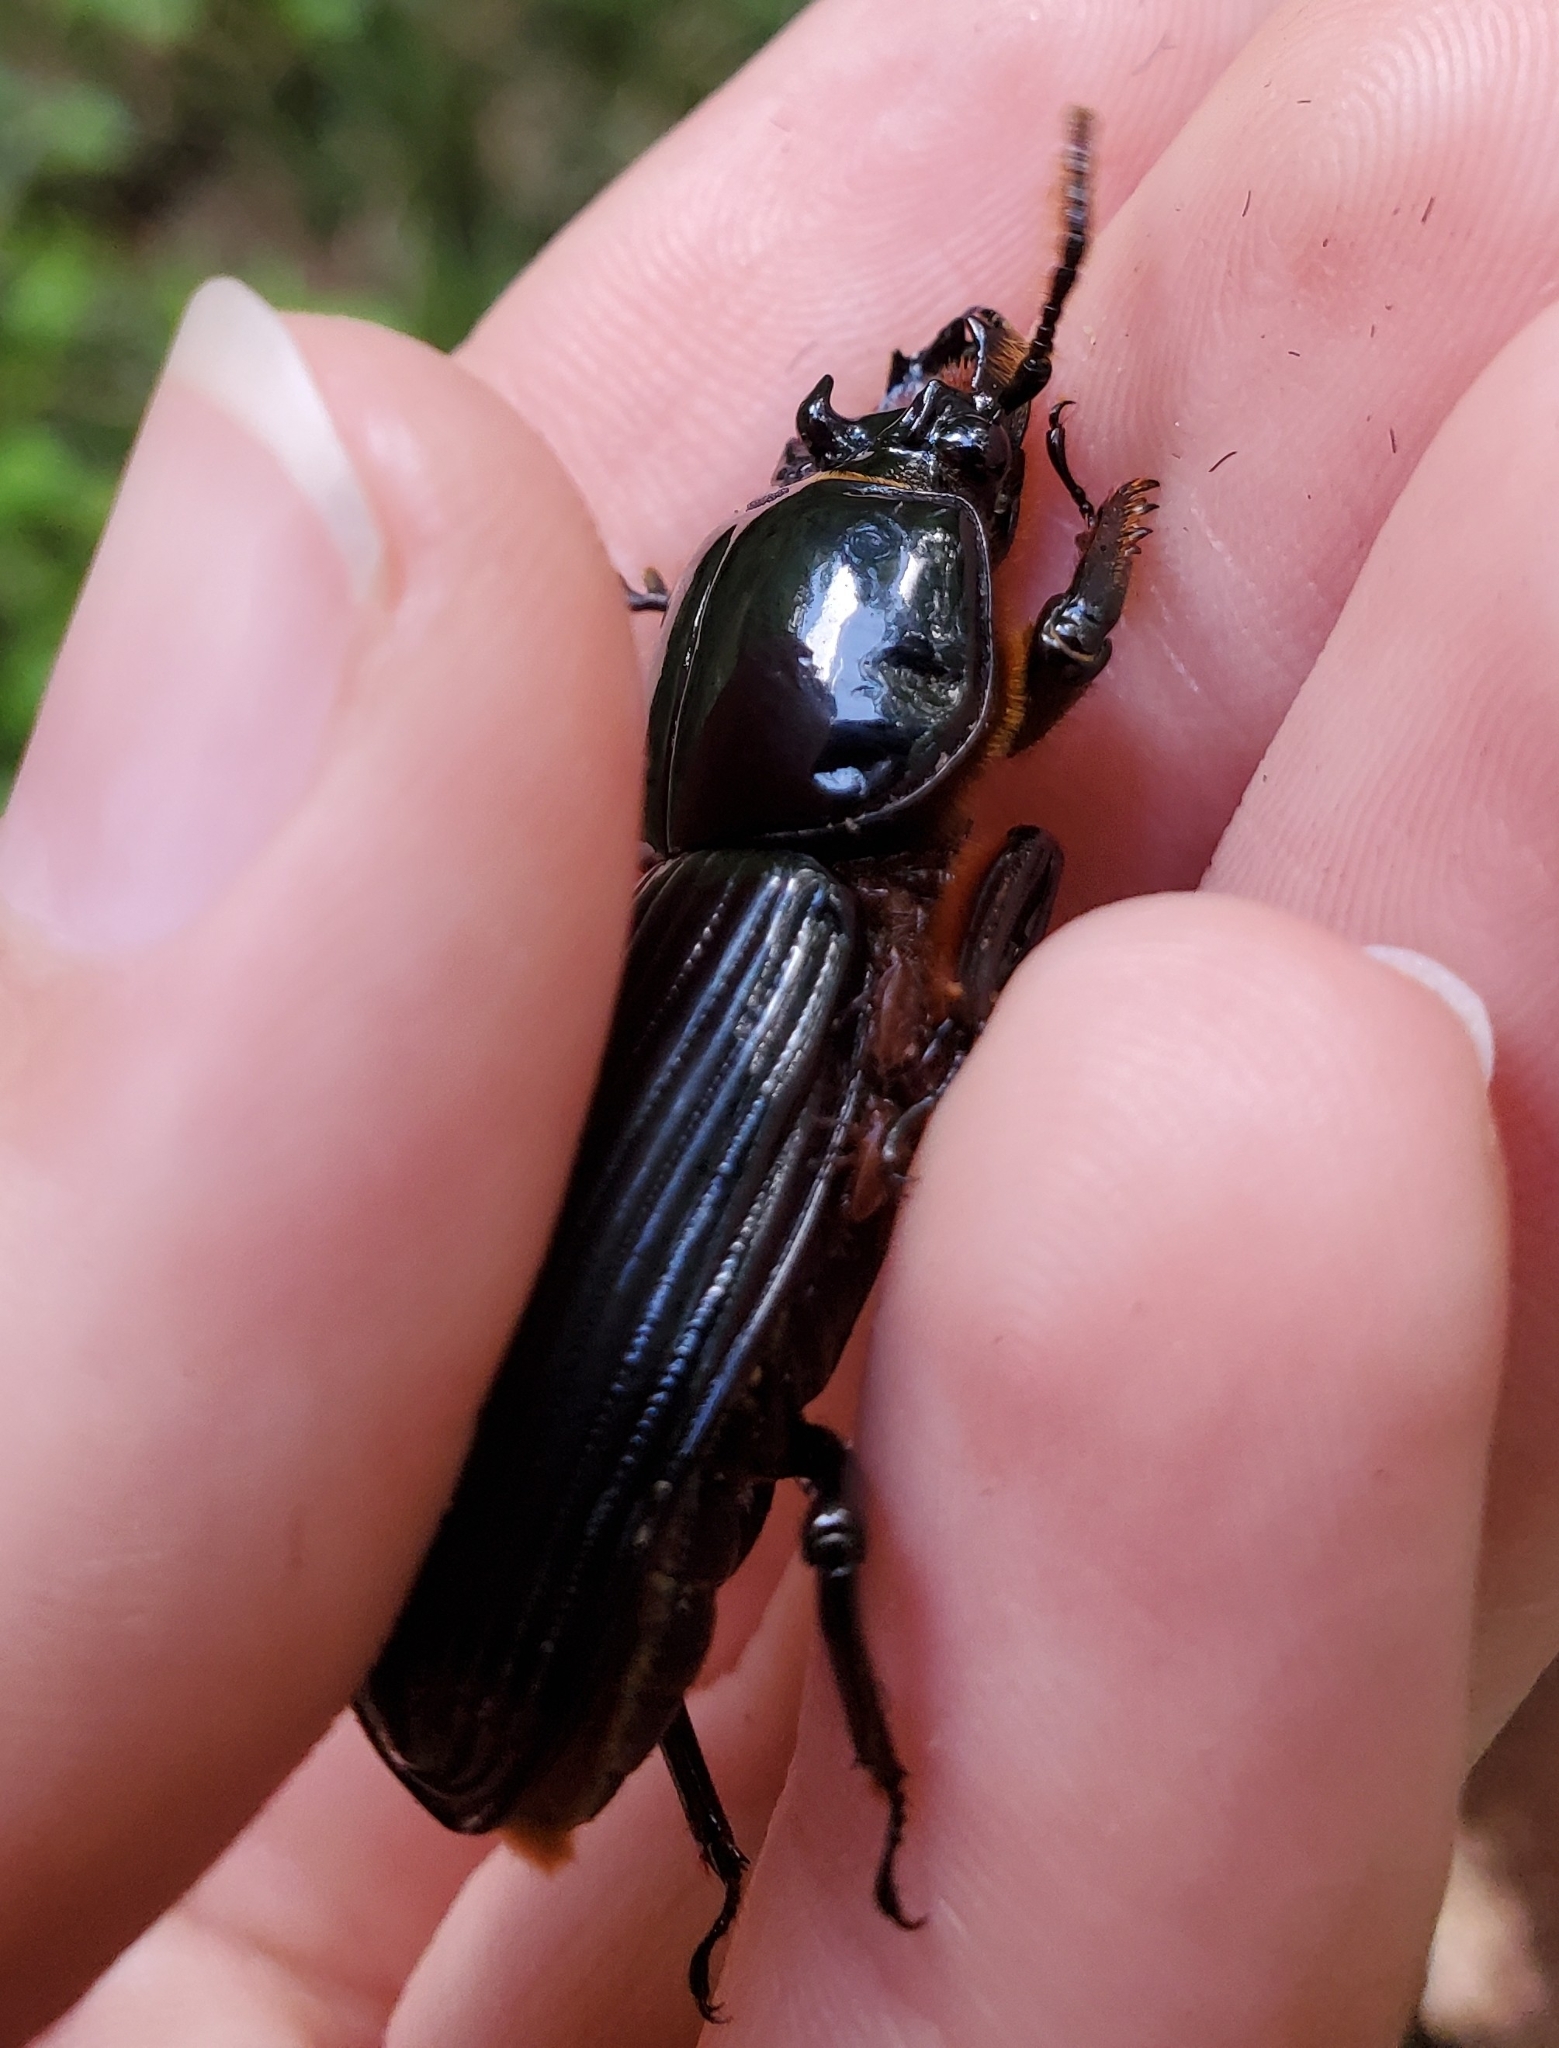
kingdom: Animalia
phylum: Arthropoda
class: Insecta
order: Coleoptera
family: Passalidae
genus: Odontotaenius
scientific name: Odontotaenius disjunctus
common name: Patent leather beetle
